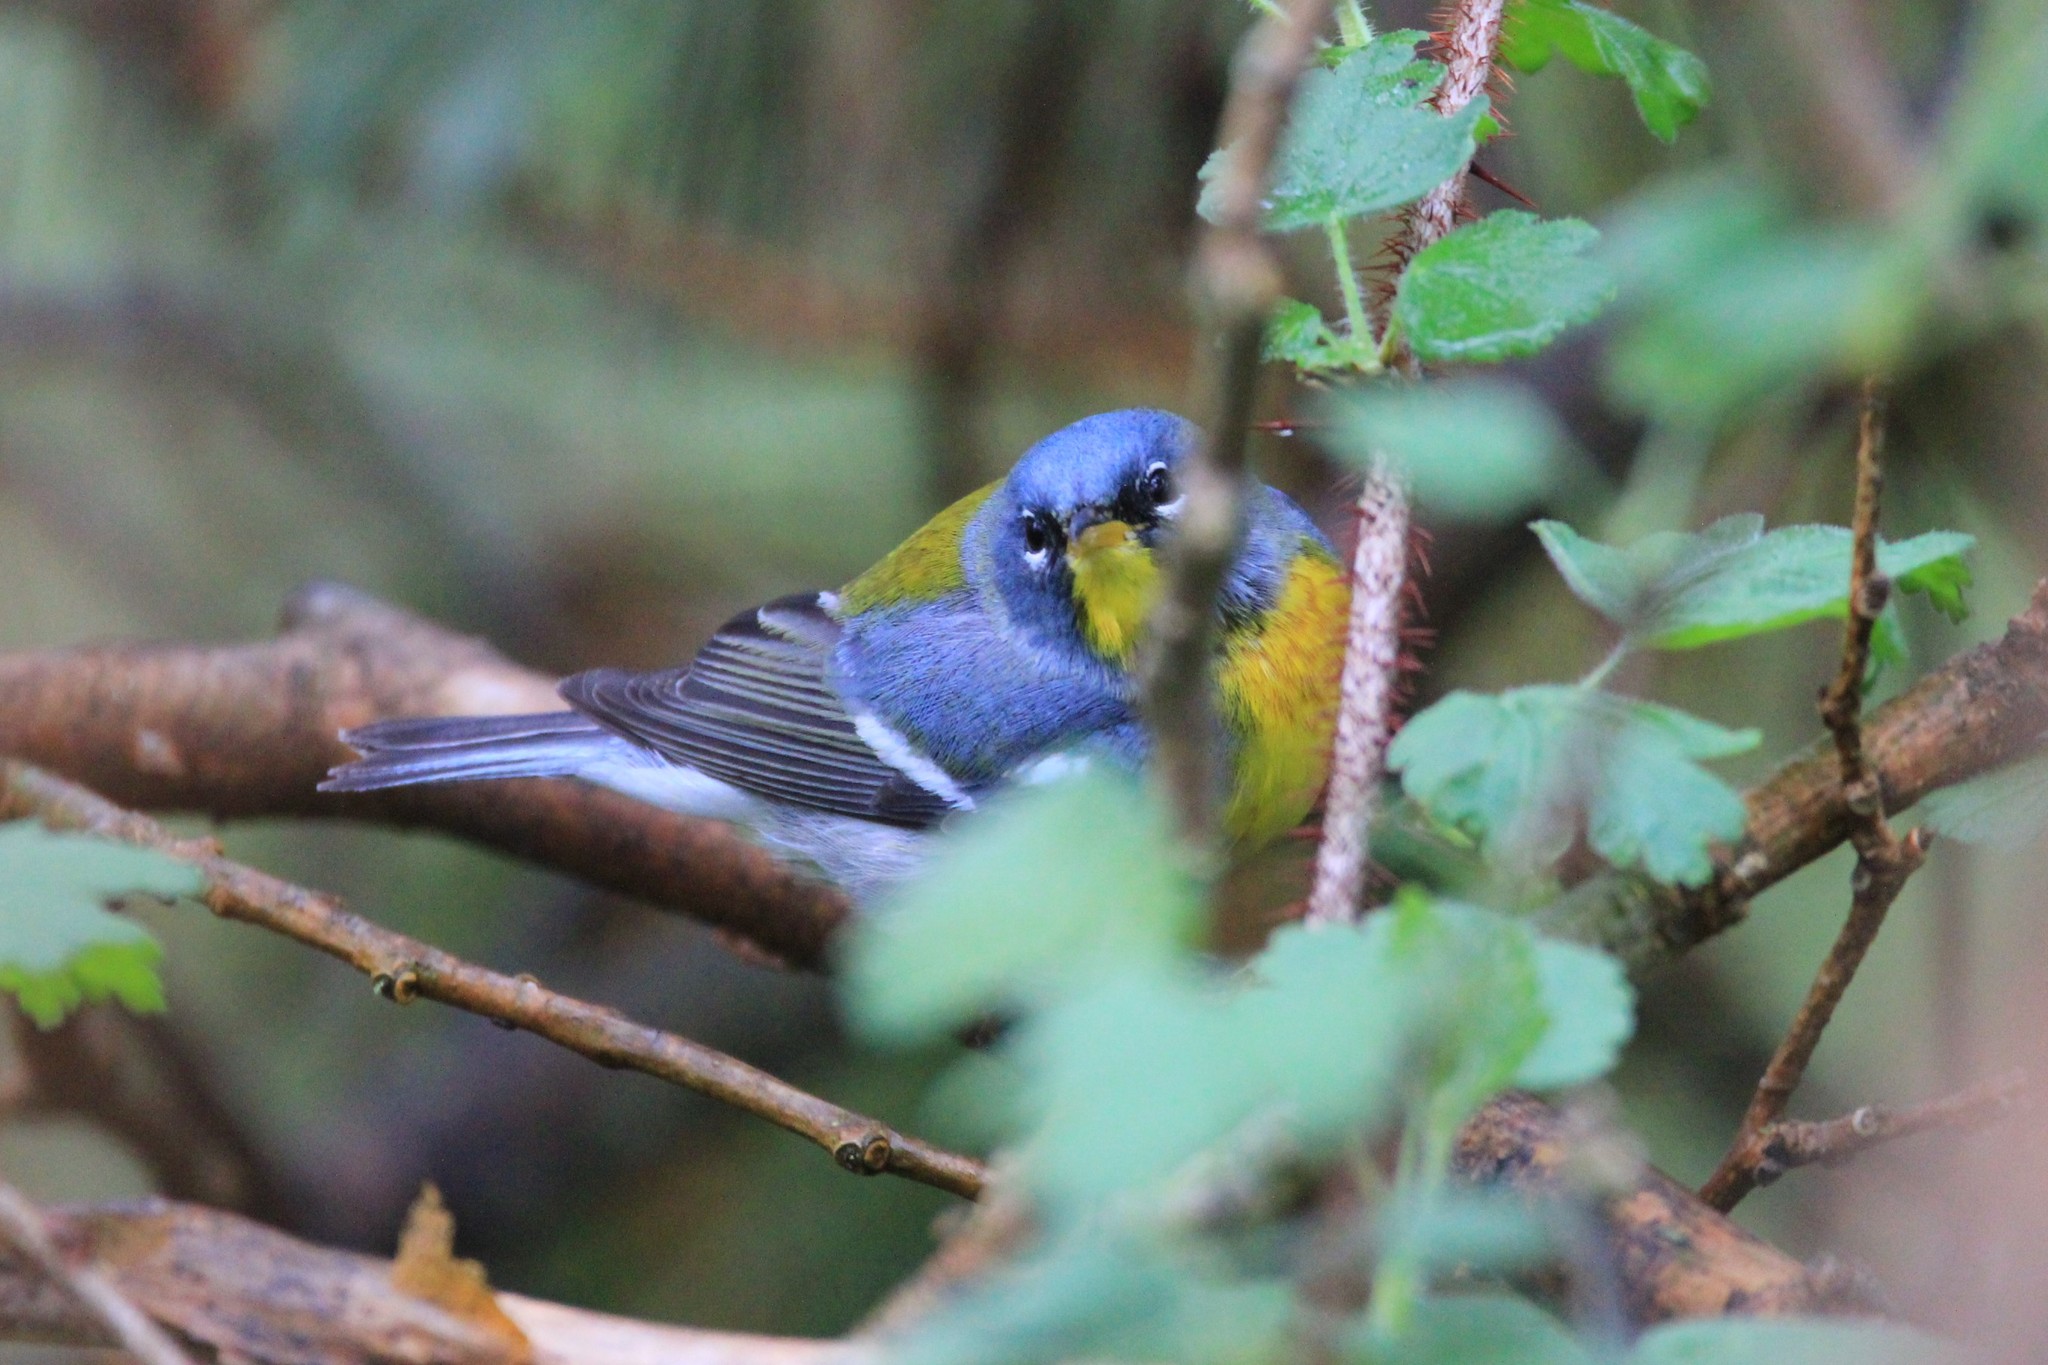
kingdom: Animalia
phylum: Chordata
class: Aves
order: Passeriformes
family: Parulidae
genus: Setophaga
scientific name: Setophaga americana
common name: Northern parula
